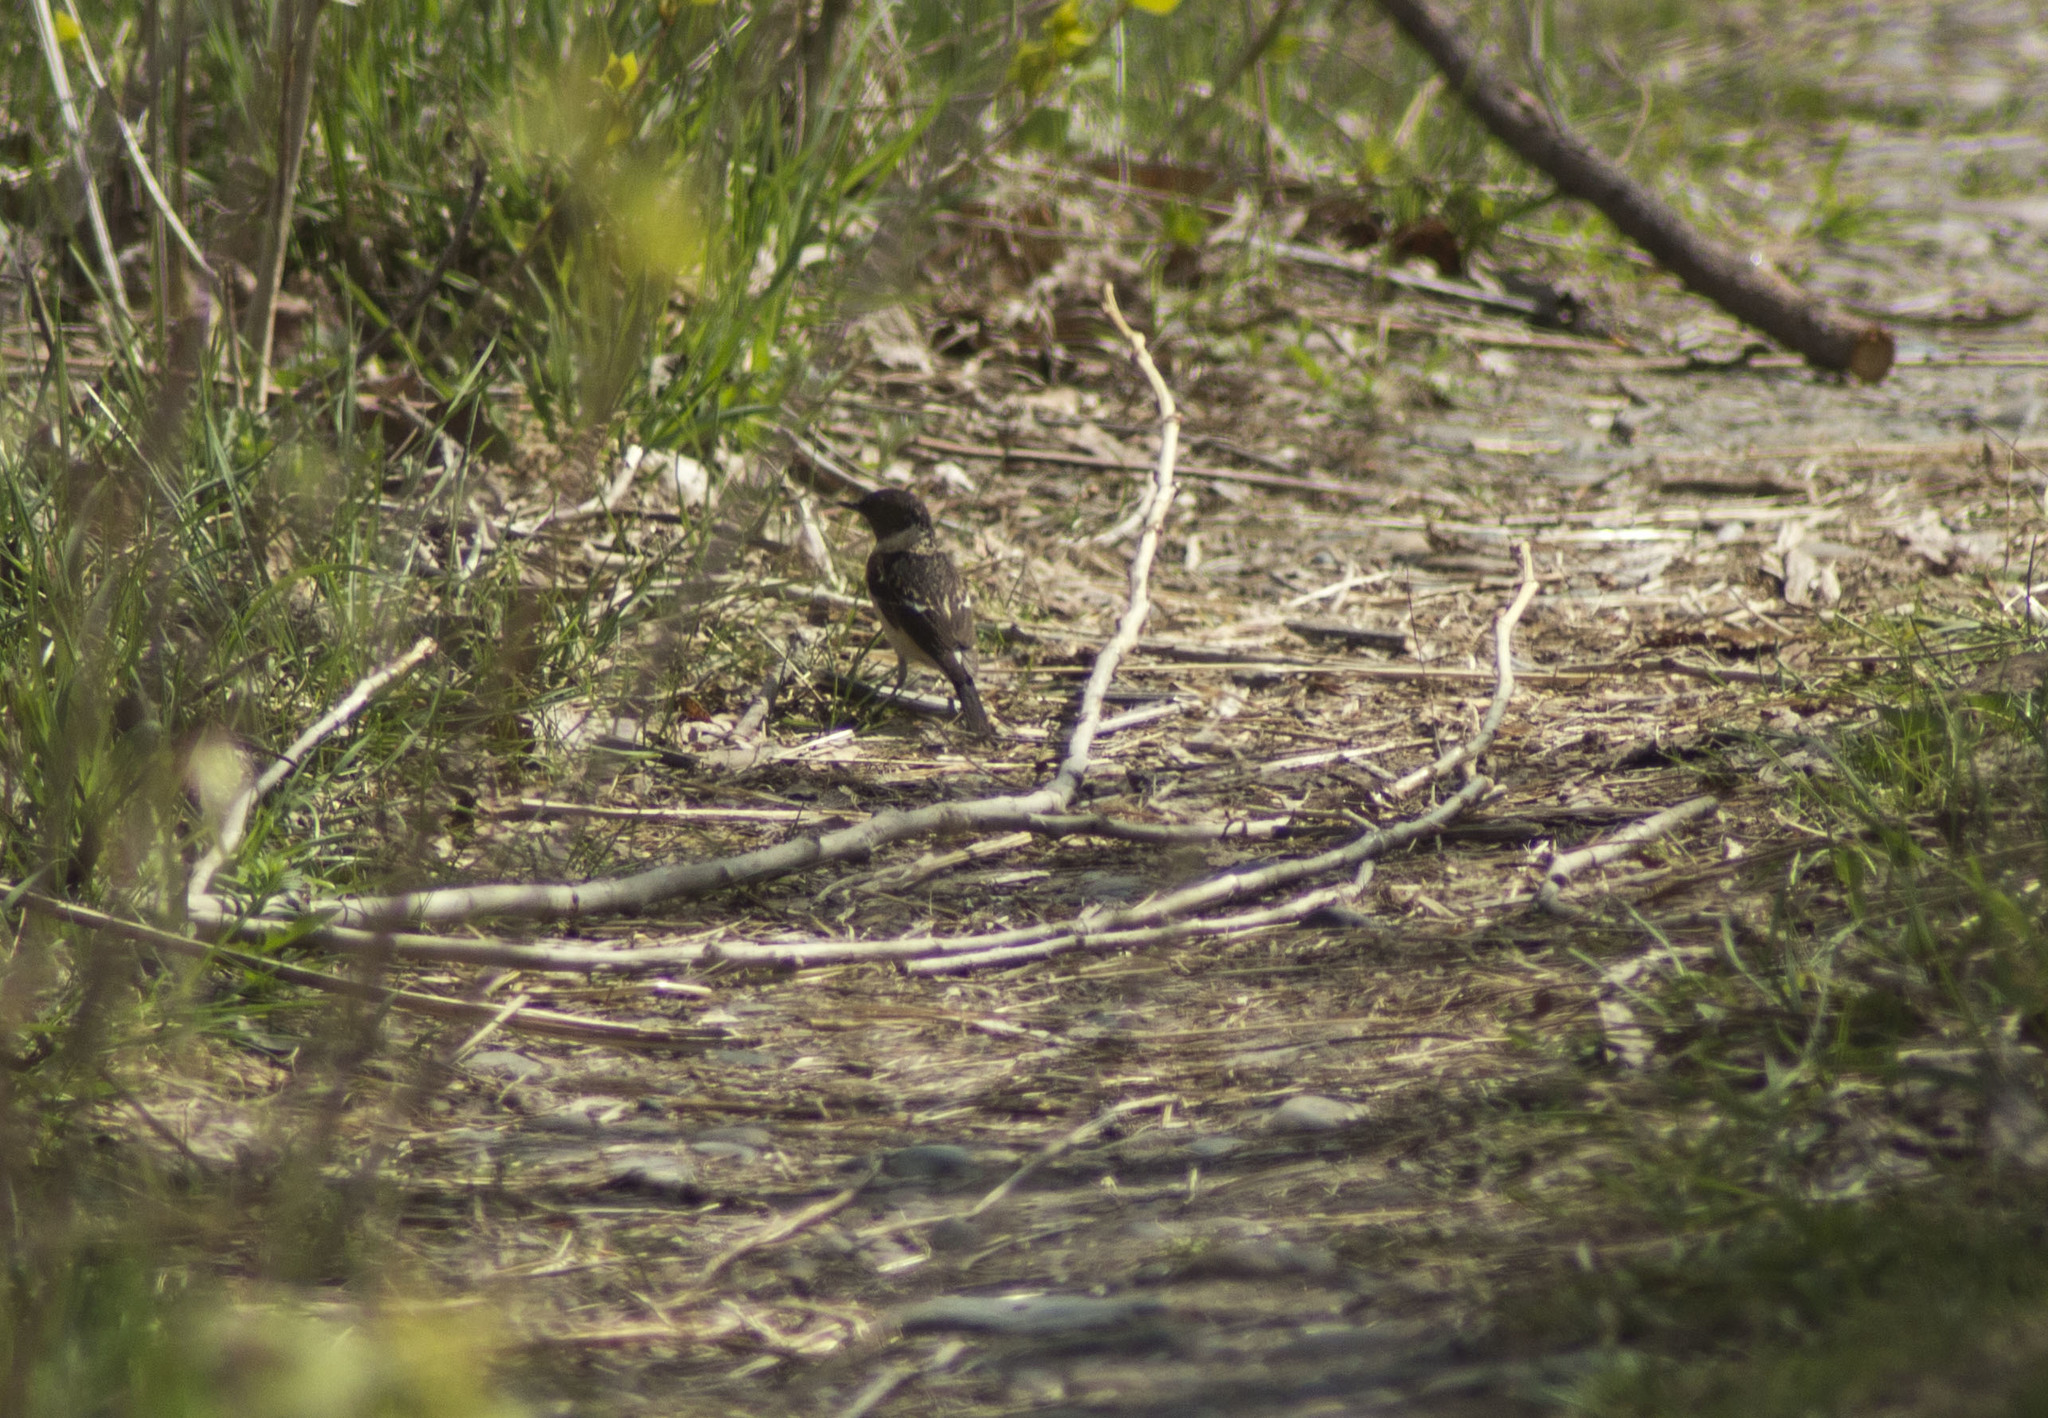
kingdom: Animalia
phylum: Chordata
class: Aves
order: Passeriformes
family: Muscicapidae
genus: Saxicola
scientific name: Saxicola maurus
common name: Siberian stonechat
